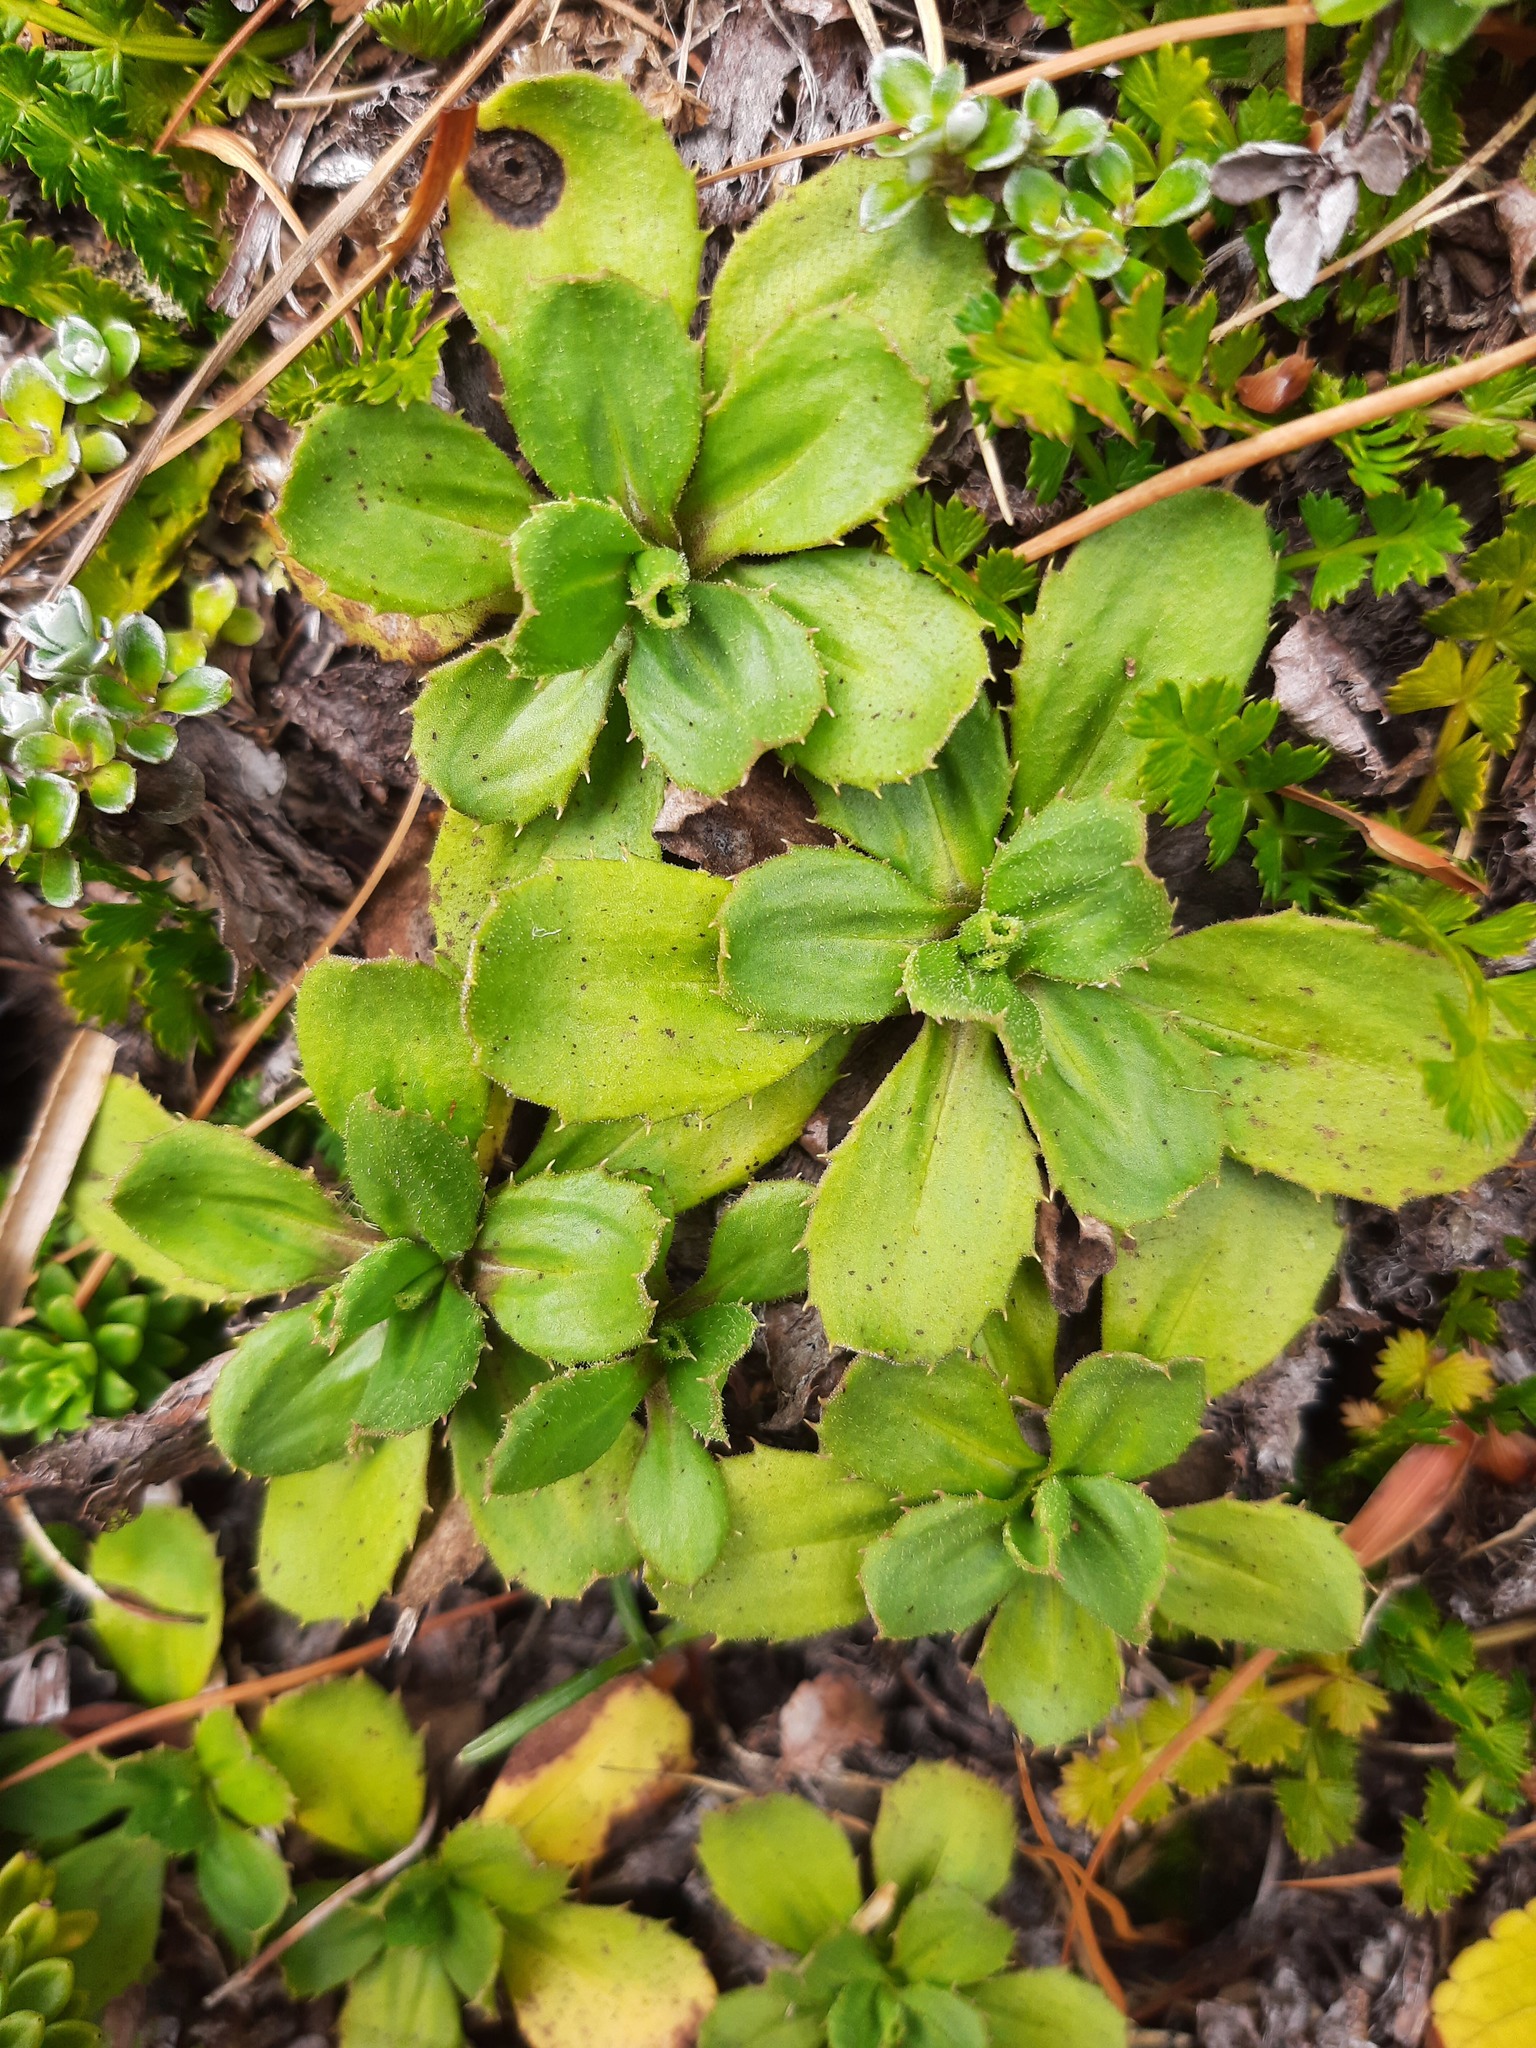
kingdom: Plantae
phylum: Tracheophyta
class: Magnoliopsida
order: Asterales
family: Asteraceae
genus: Celmisia
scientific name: Celmisia glandulosa
